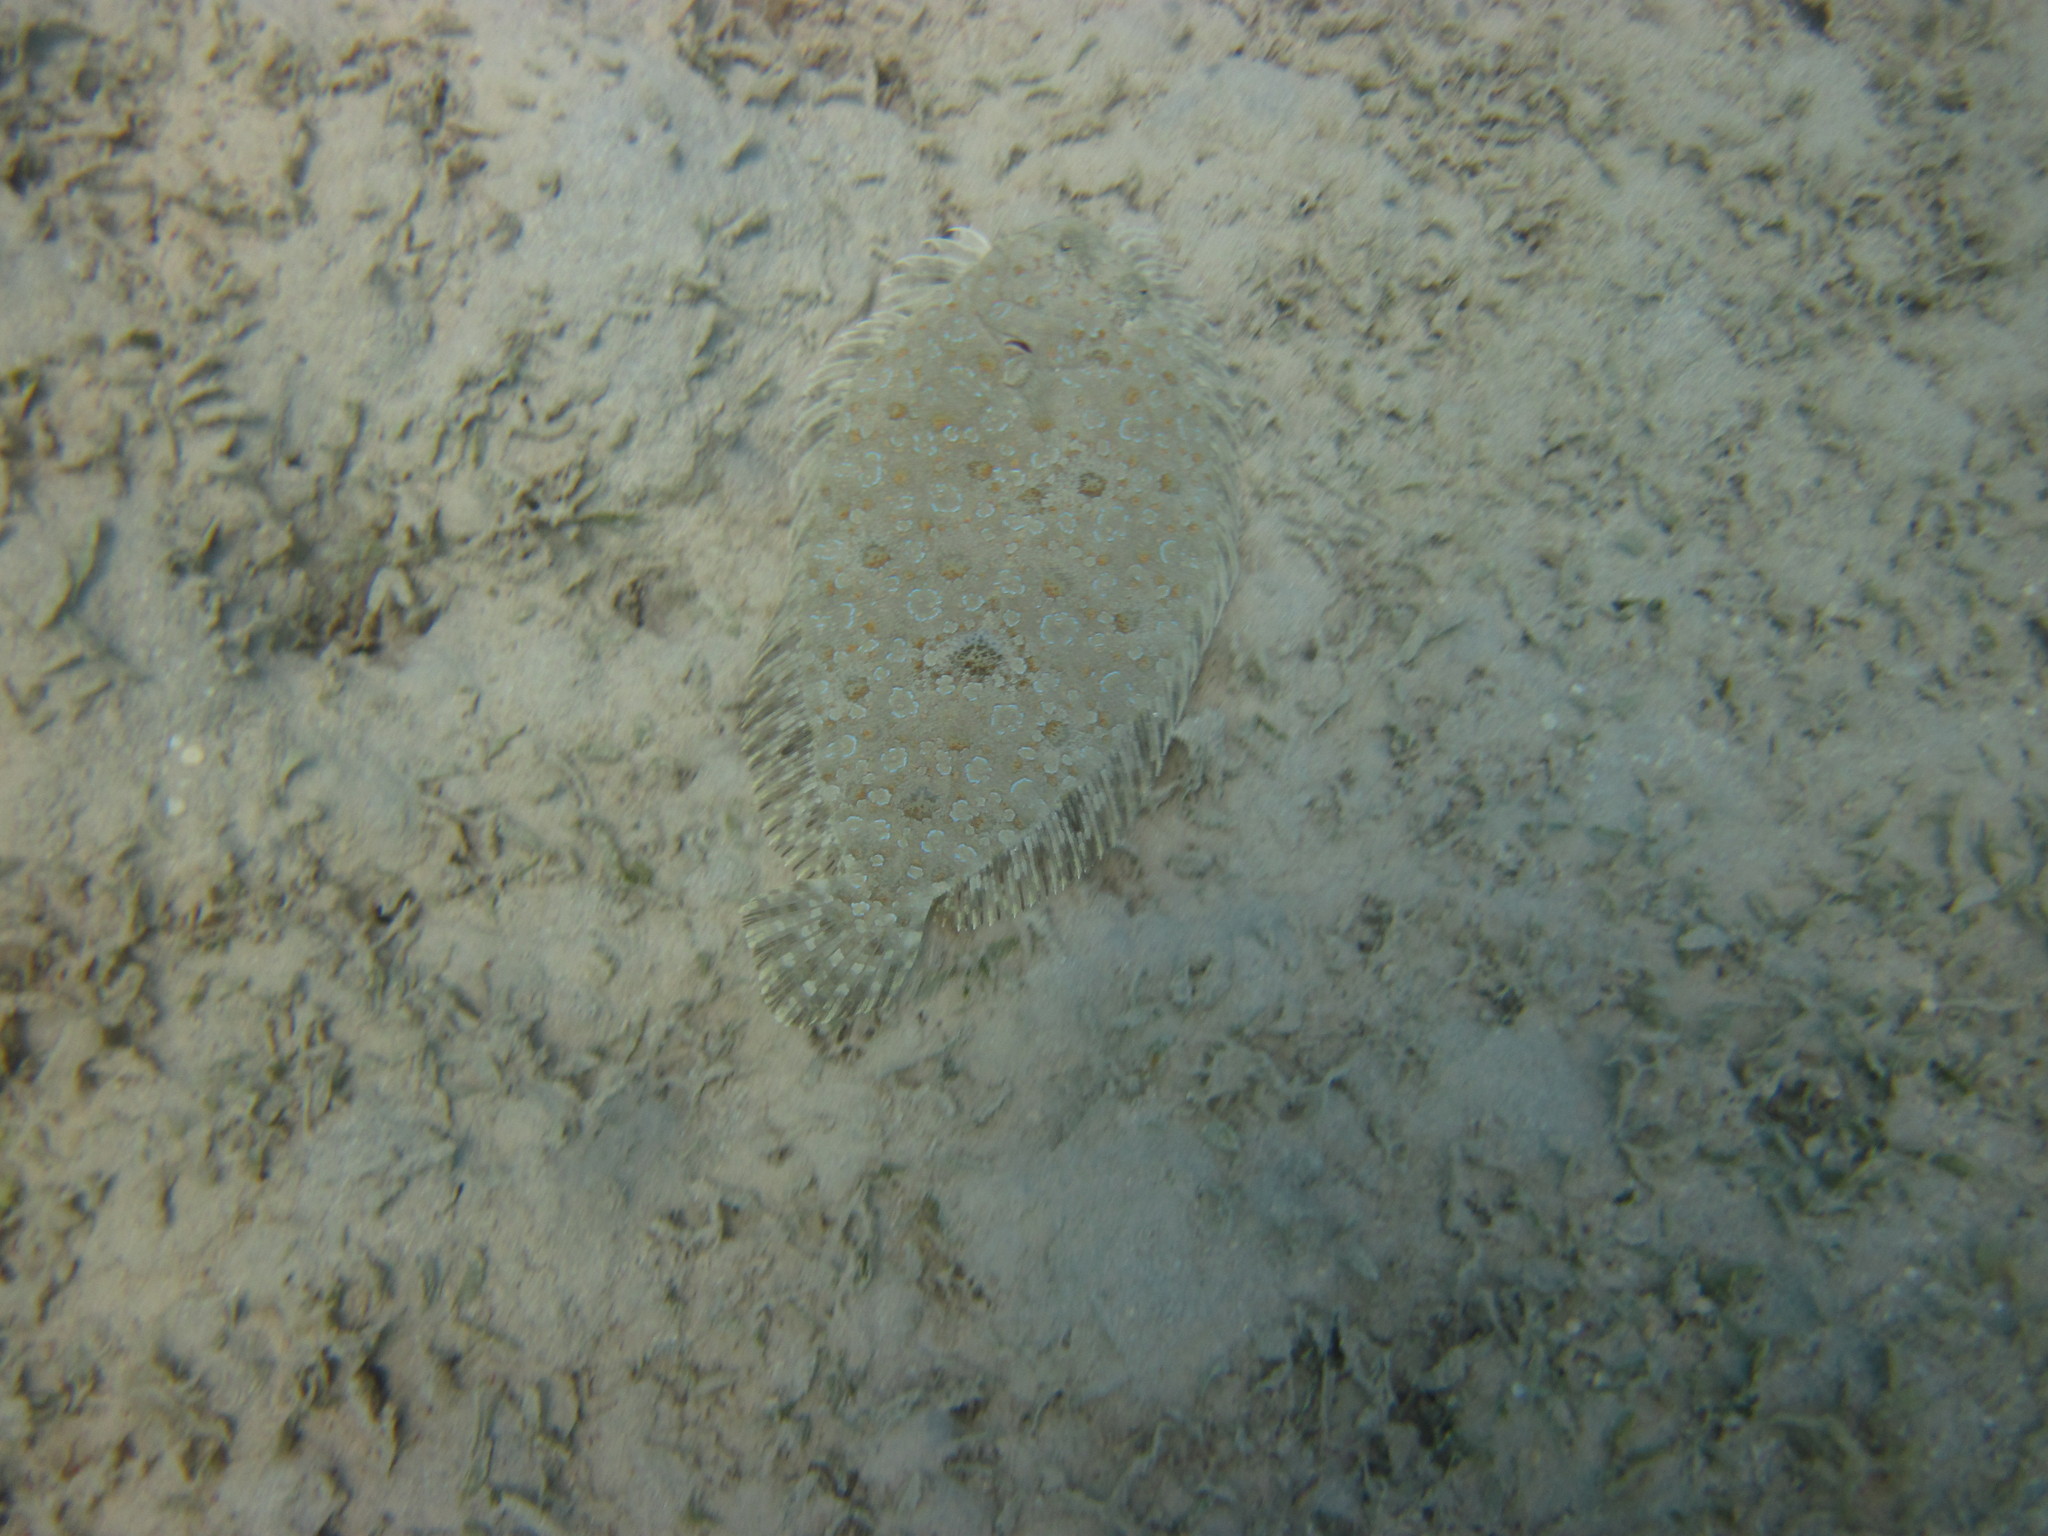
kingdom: Animalia
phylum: Chordata
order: Pleuronectiformes
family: Bothidae
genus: Bothus
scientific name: Bothus pantherinus
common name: Leopard flounder
